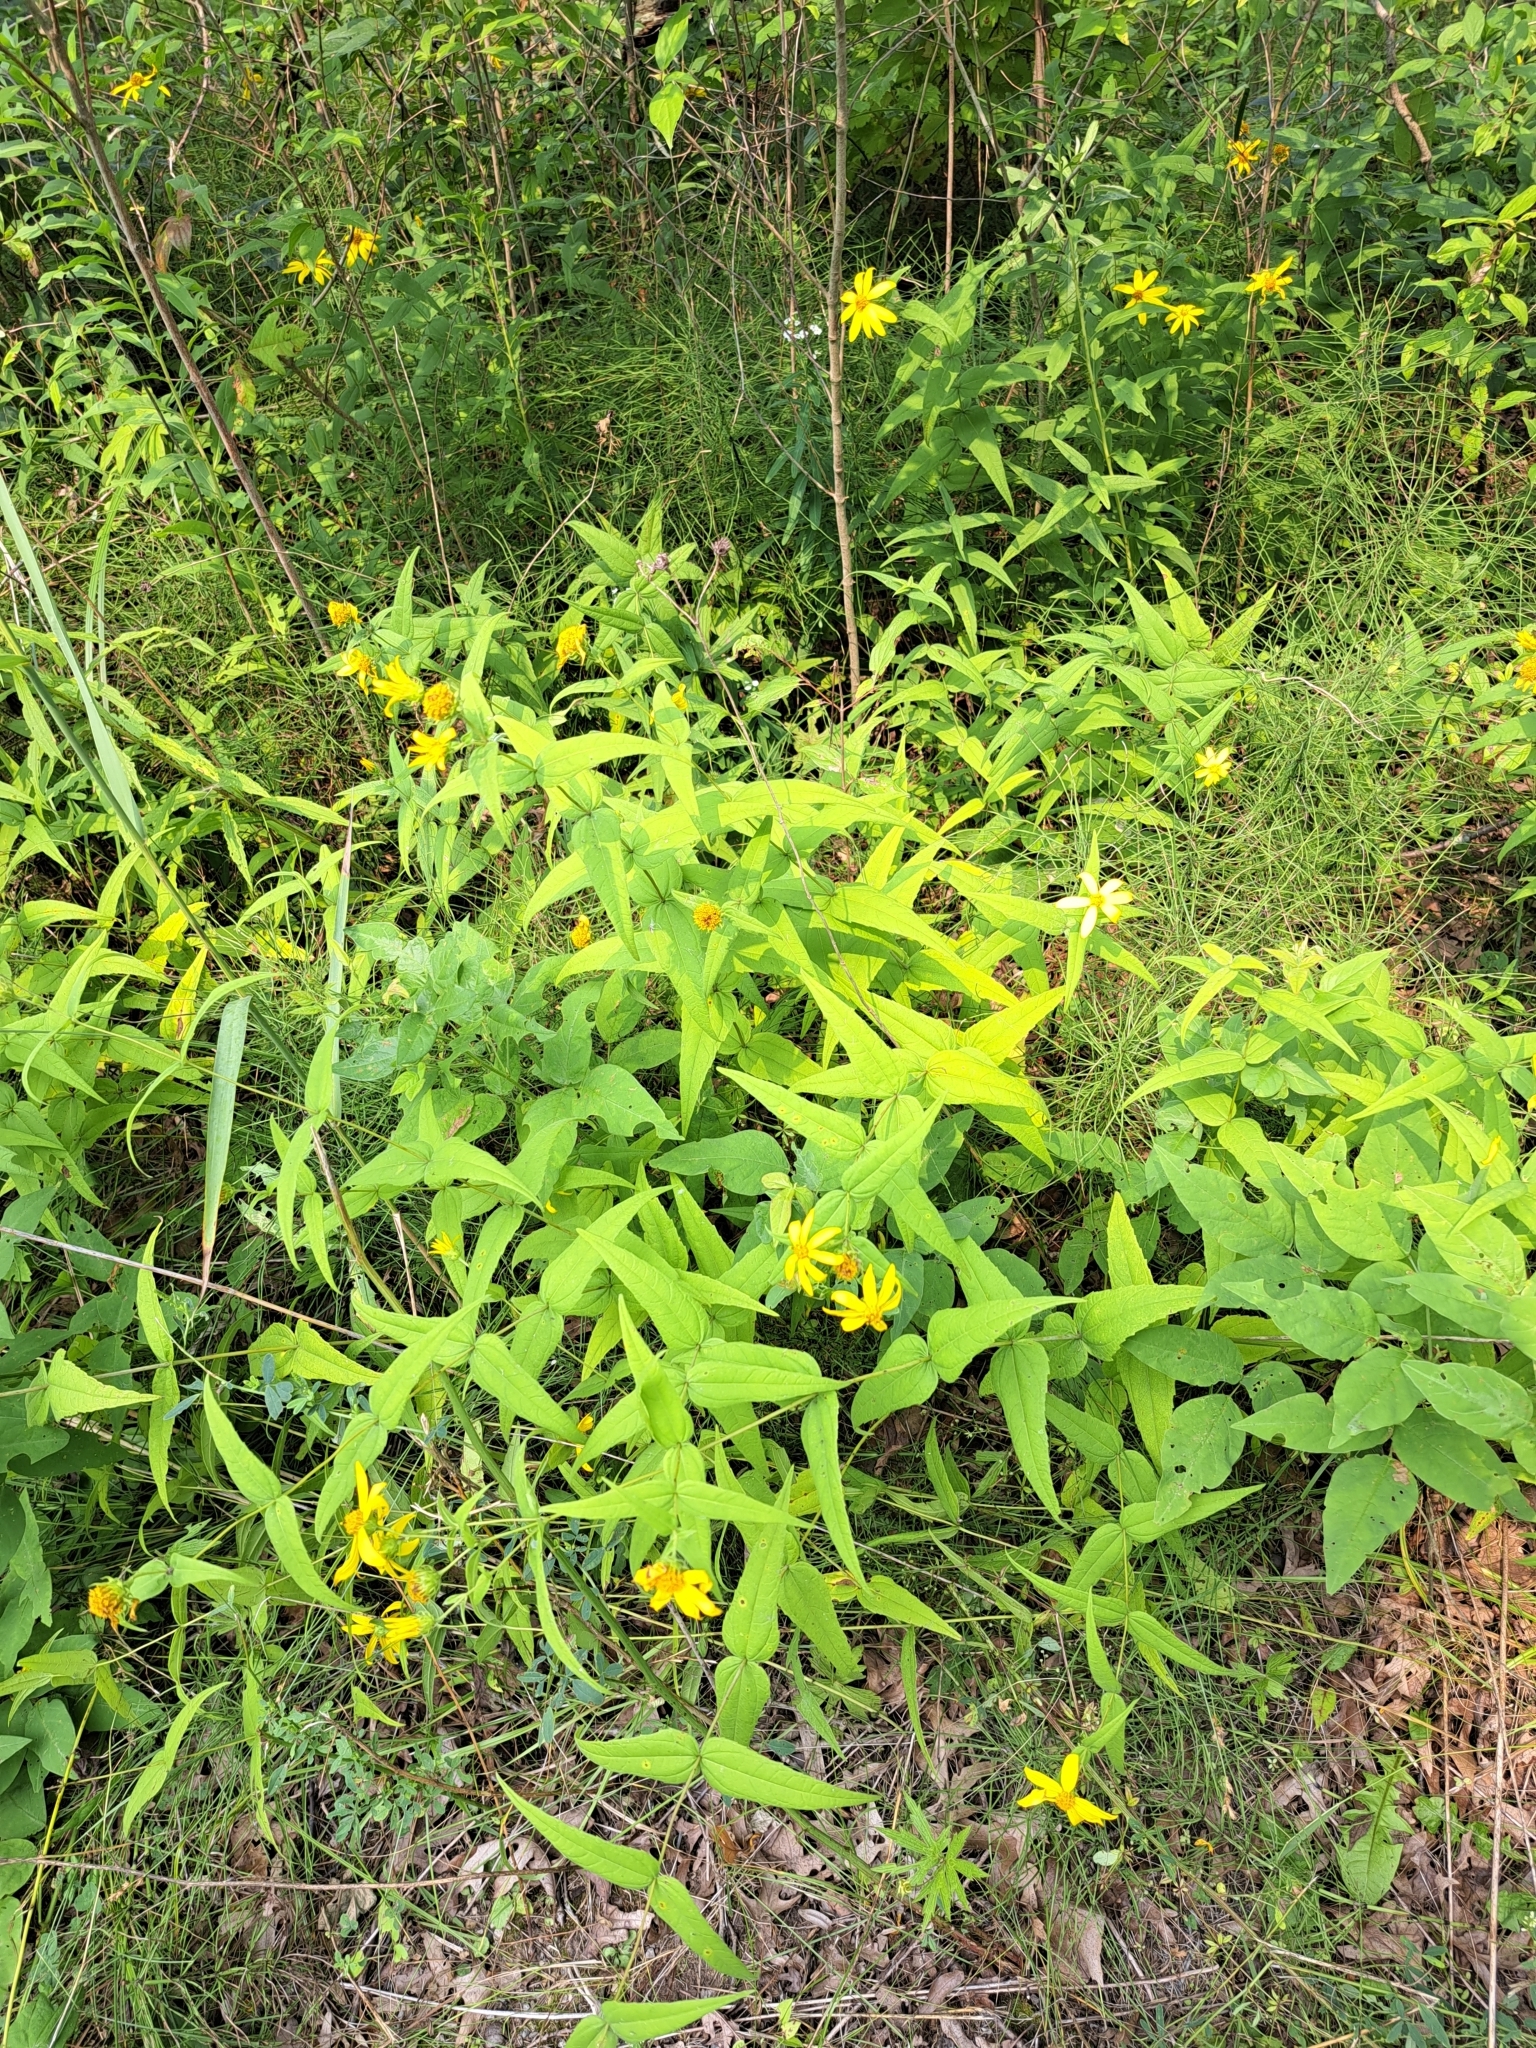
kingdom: Plantae
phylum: Tracheophyta
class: Magnoliopsida
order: Asterales
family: Asteraceae
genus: Helianthus
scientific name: Helianthus divaricatus
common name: Divergent sunflower
